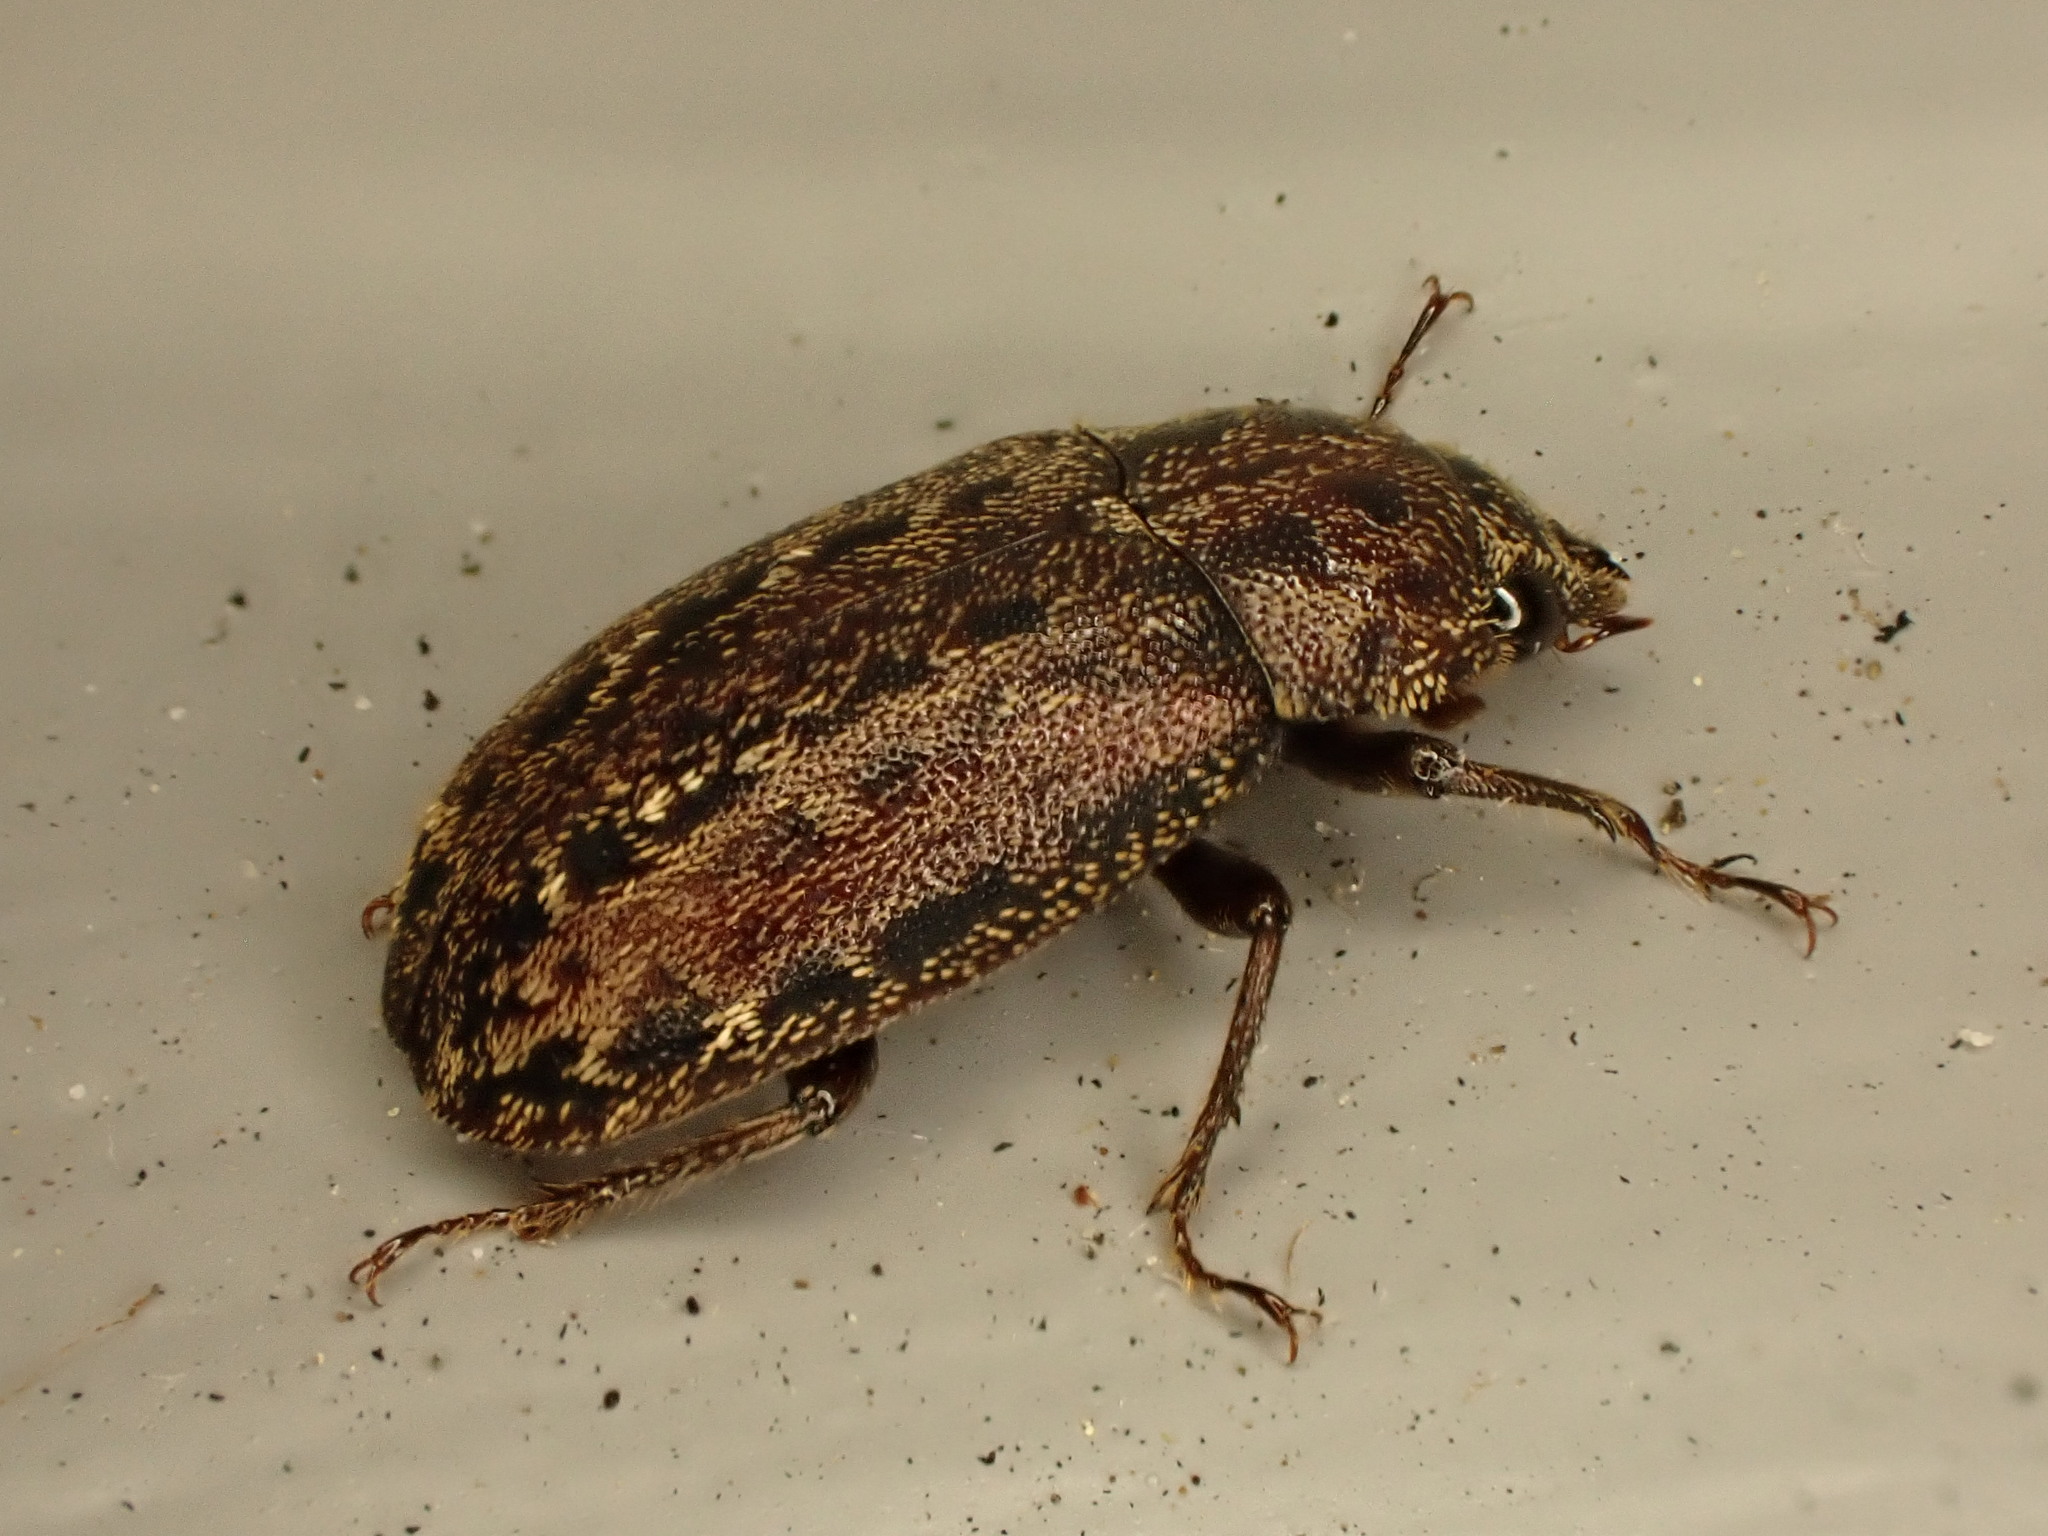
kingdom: Animalia
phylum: Arthropoda
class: Insecta
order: Coleoptera
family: Lucanidae
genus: Mitophyllus
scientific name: Mitophyllus arcuatus
